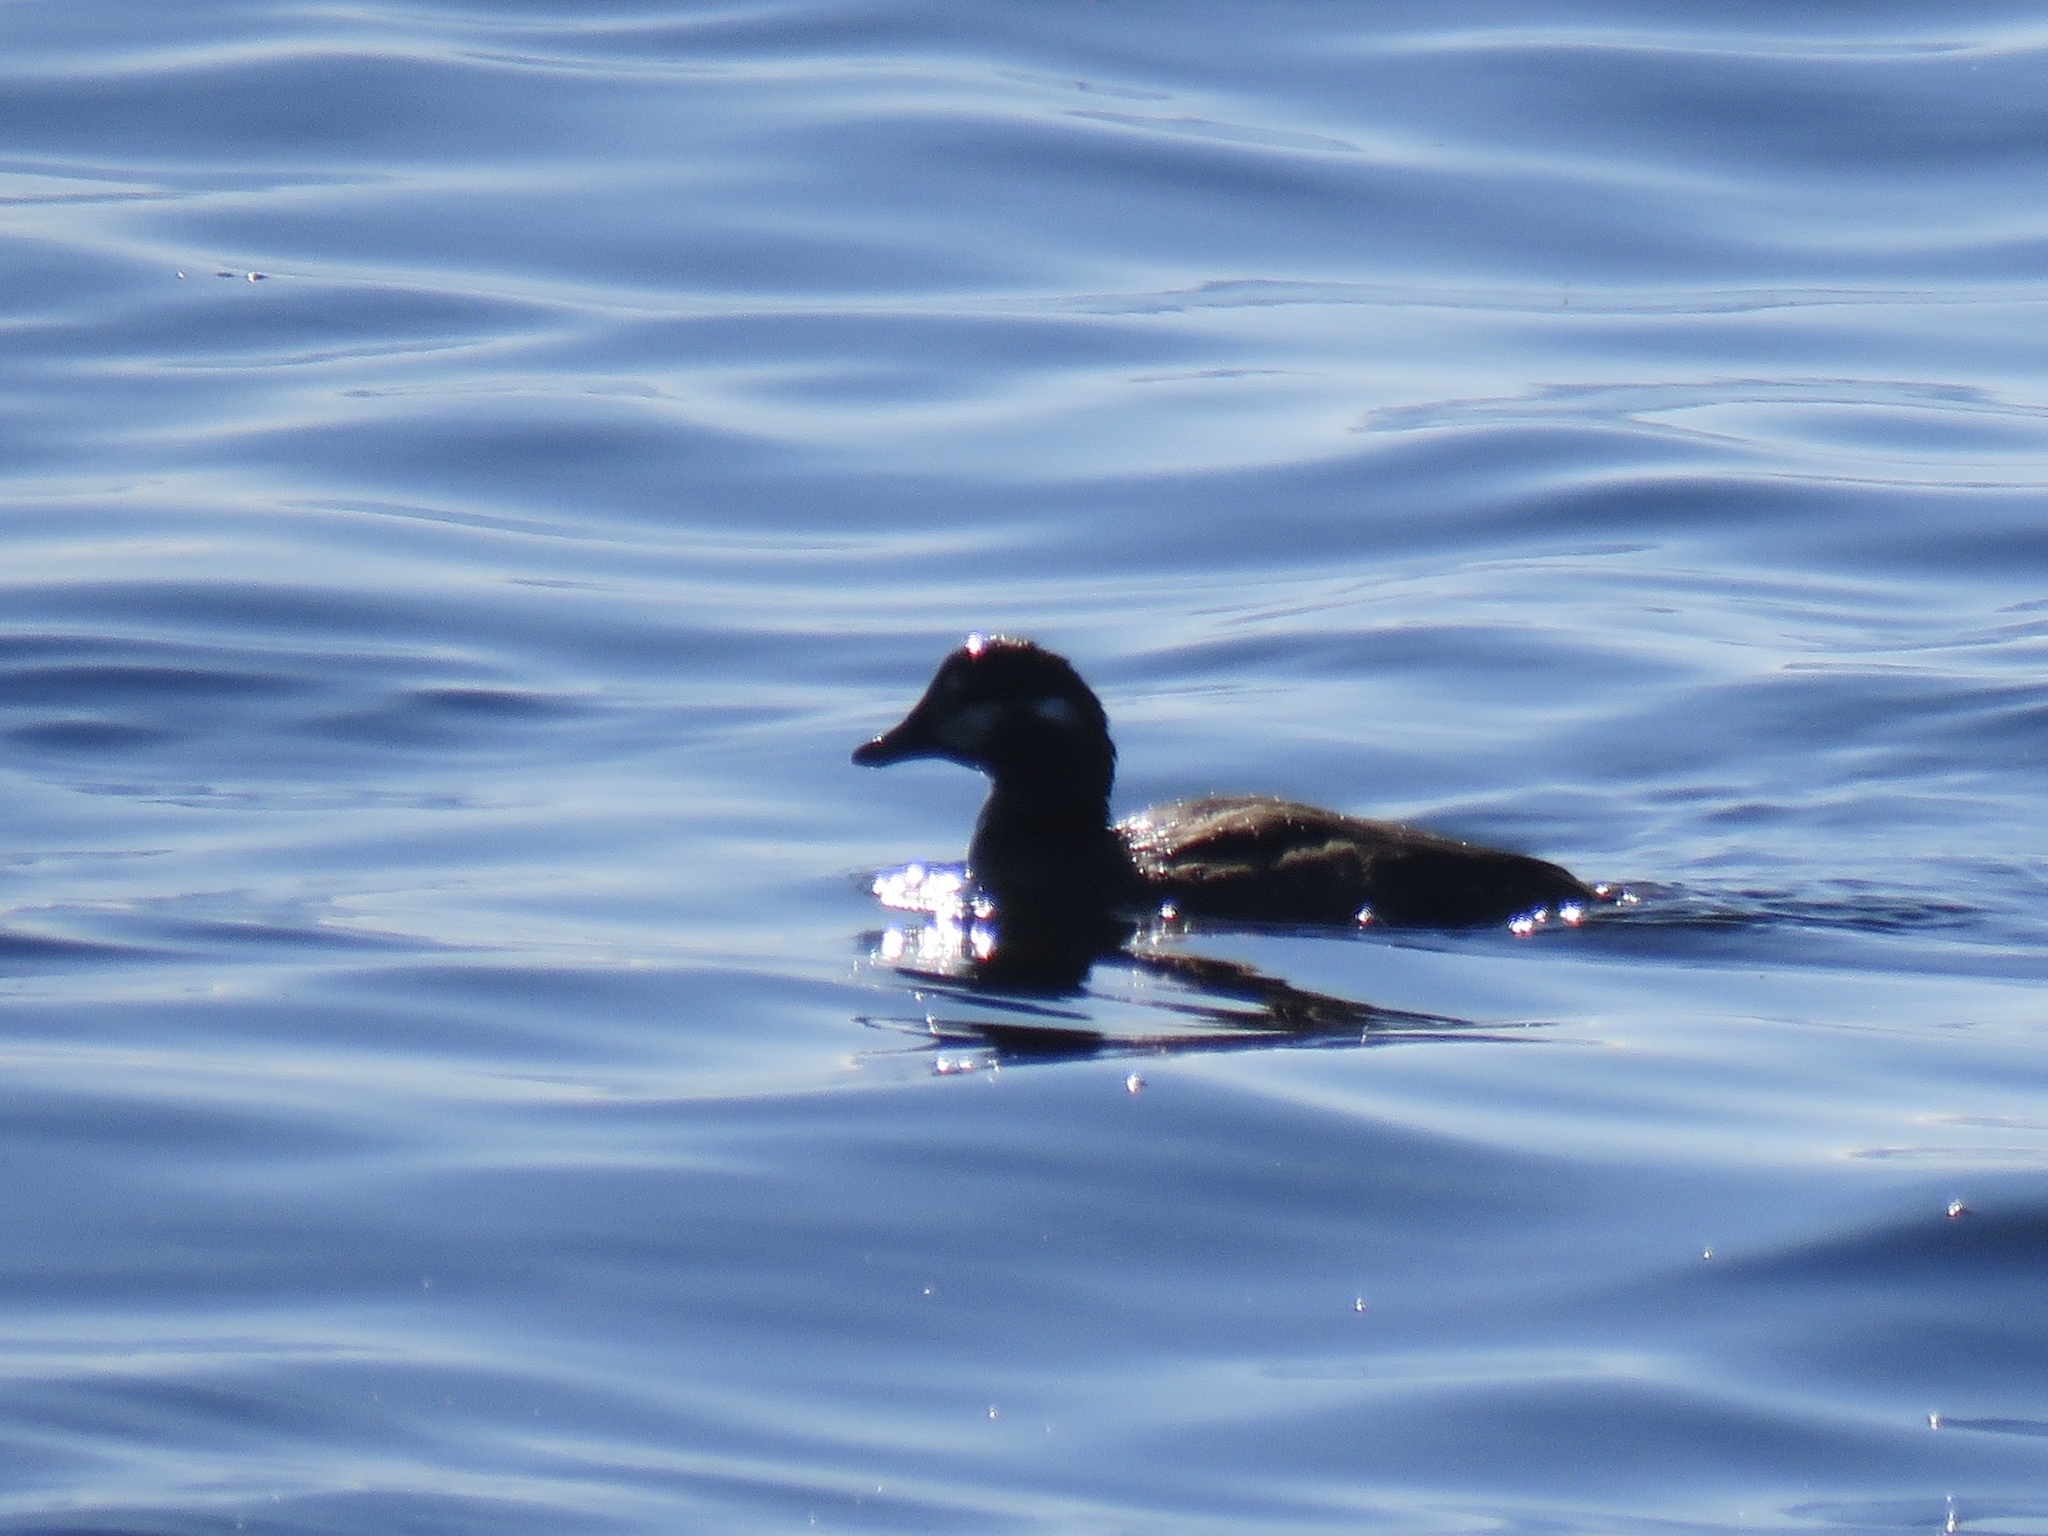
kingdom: Animalia
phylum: Chordata
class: Aves
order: Anseriformes
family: Anatidae
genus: Histrionicus
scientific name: Histrionicus histrionicus
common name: Harlequin duck
